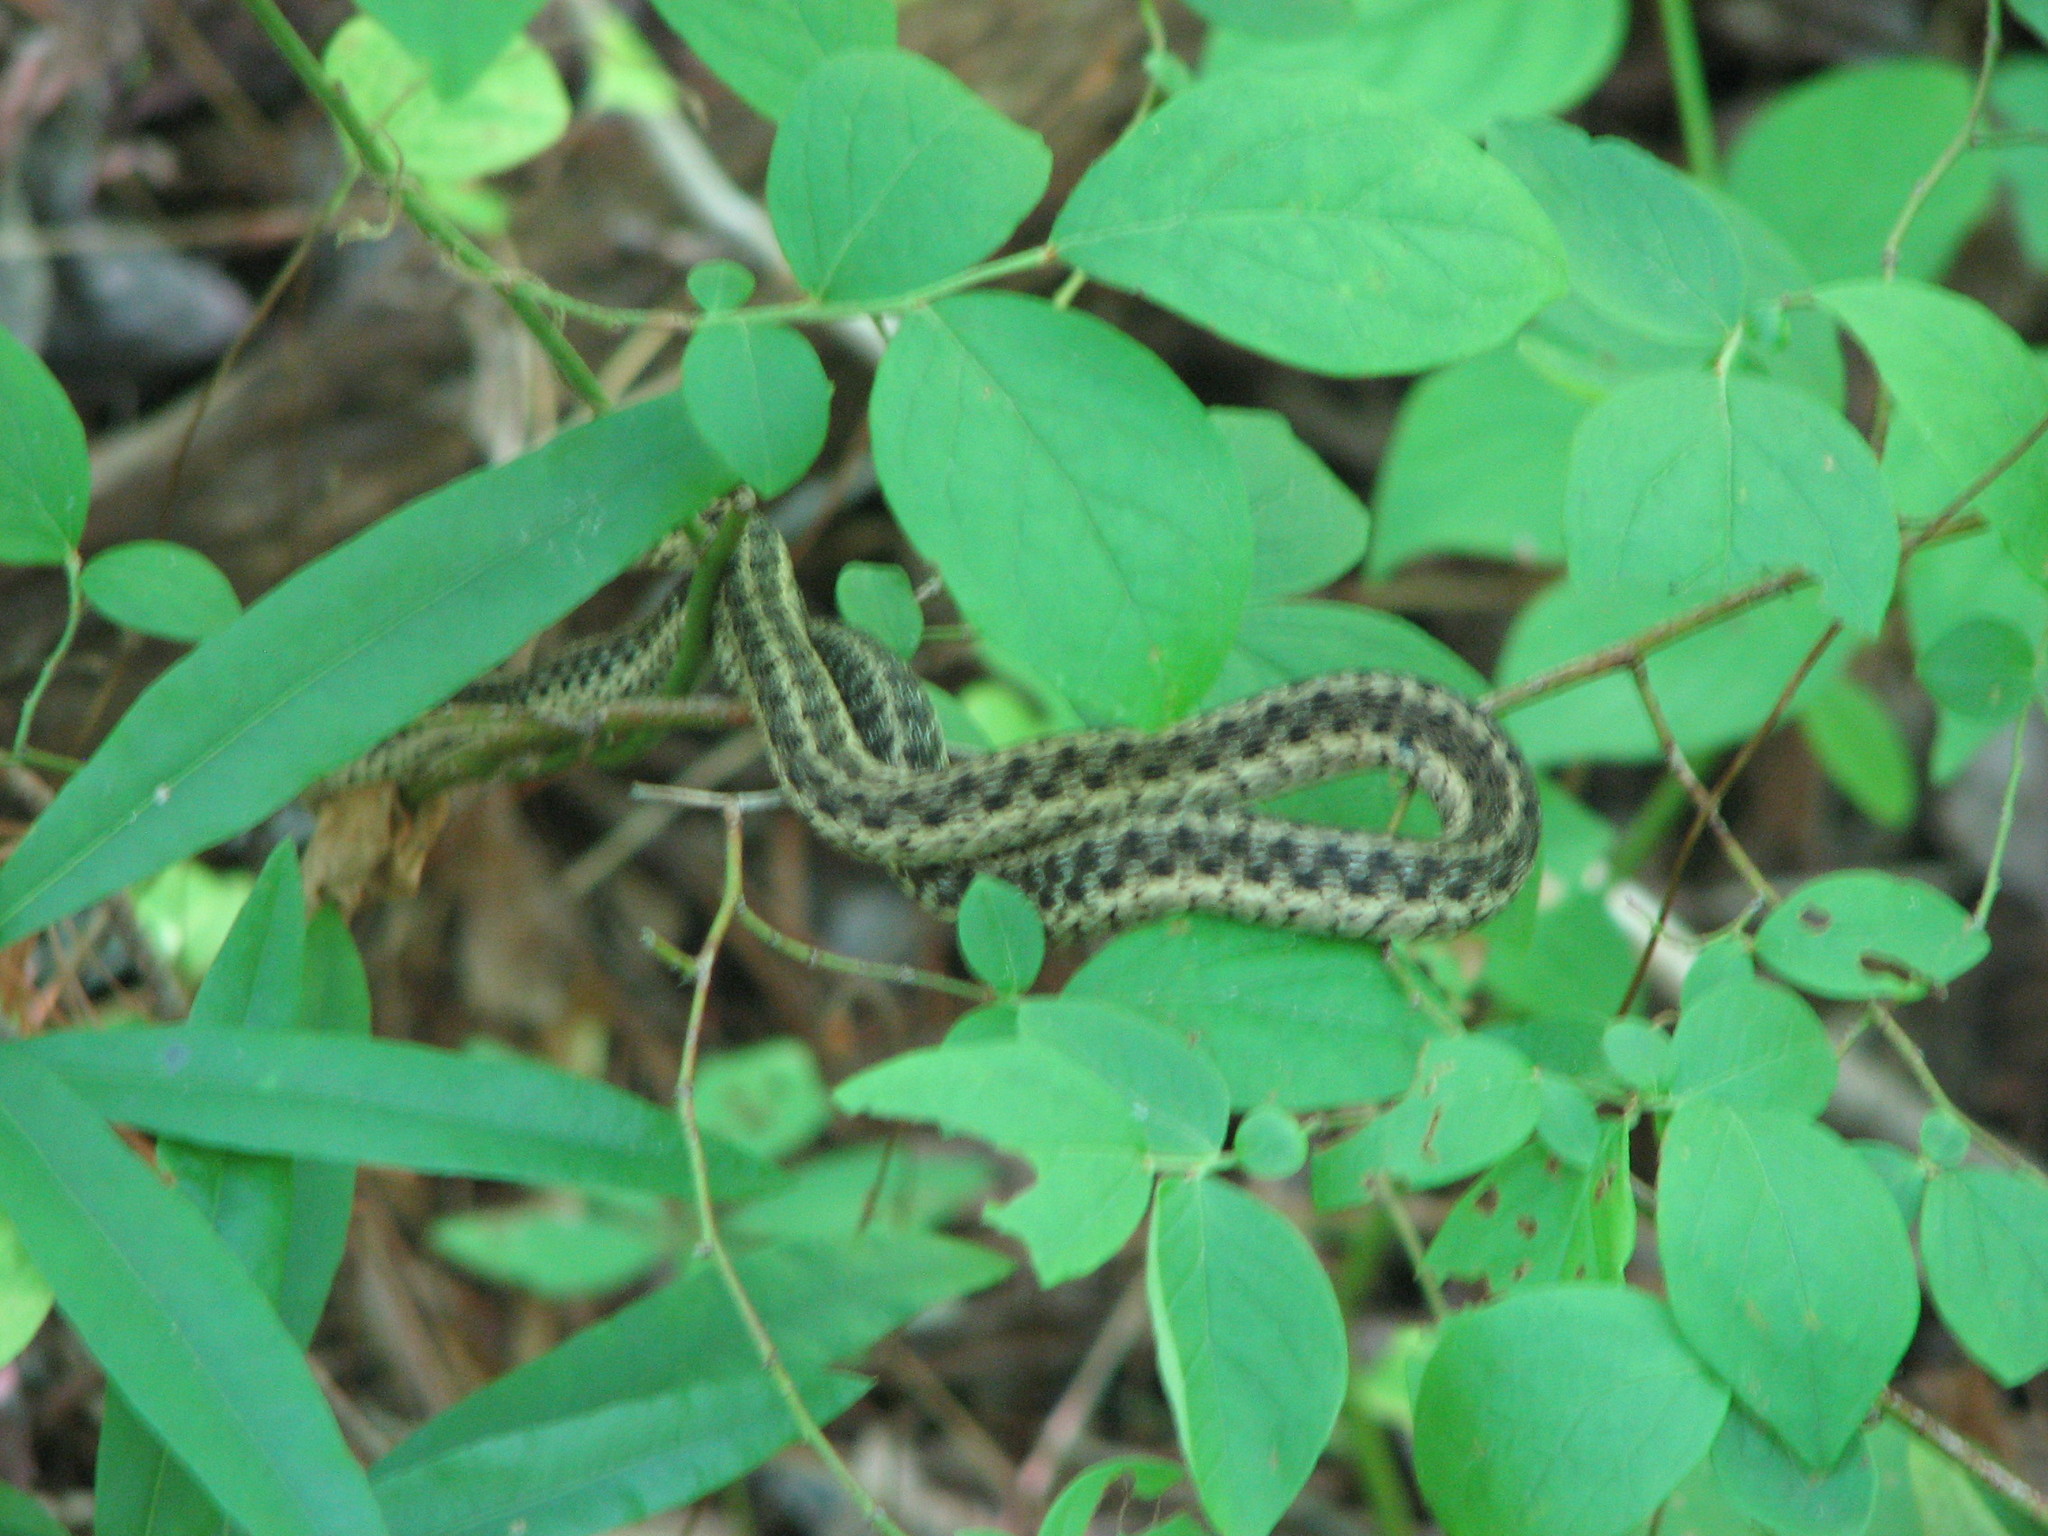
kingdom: Animalia
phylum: Chordata
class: Squamata
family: Colubridae
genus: Thamnophis
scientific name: Thamnophis sirtalis
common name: Common garter snake
